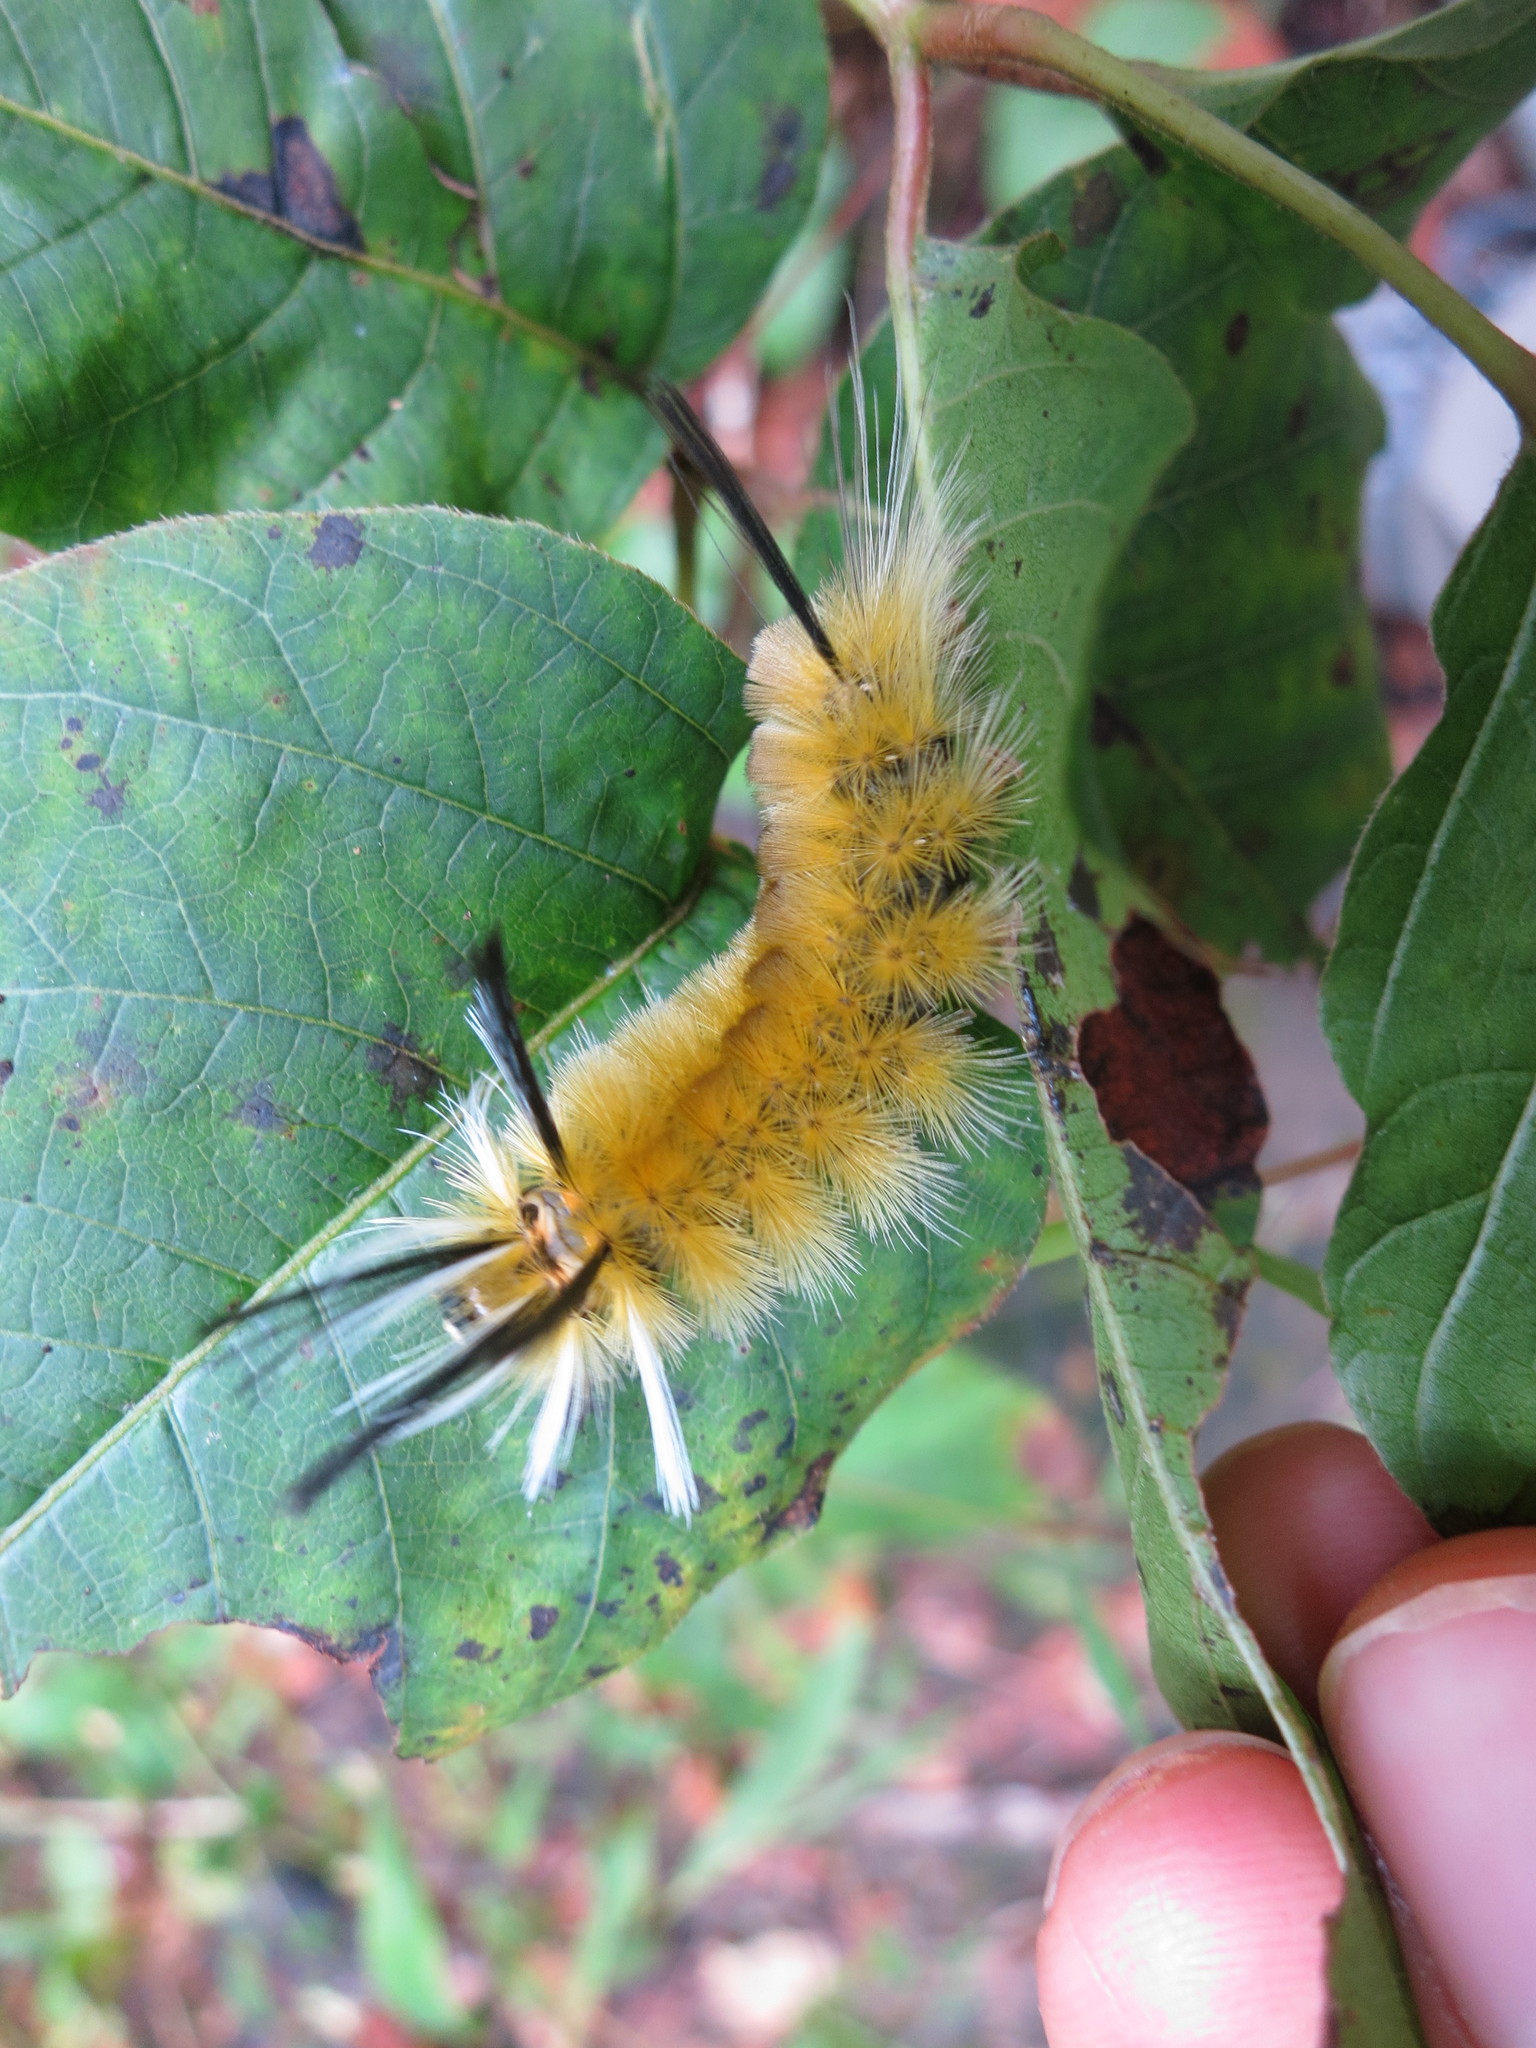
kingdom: Animalia
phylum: Arthropoda
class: Insecta
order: Lepidoptera
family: Erebidae
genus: Halysidota
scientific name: Halysidota tessellaris
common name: Banded tussock moth
